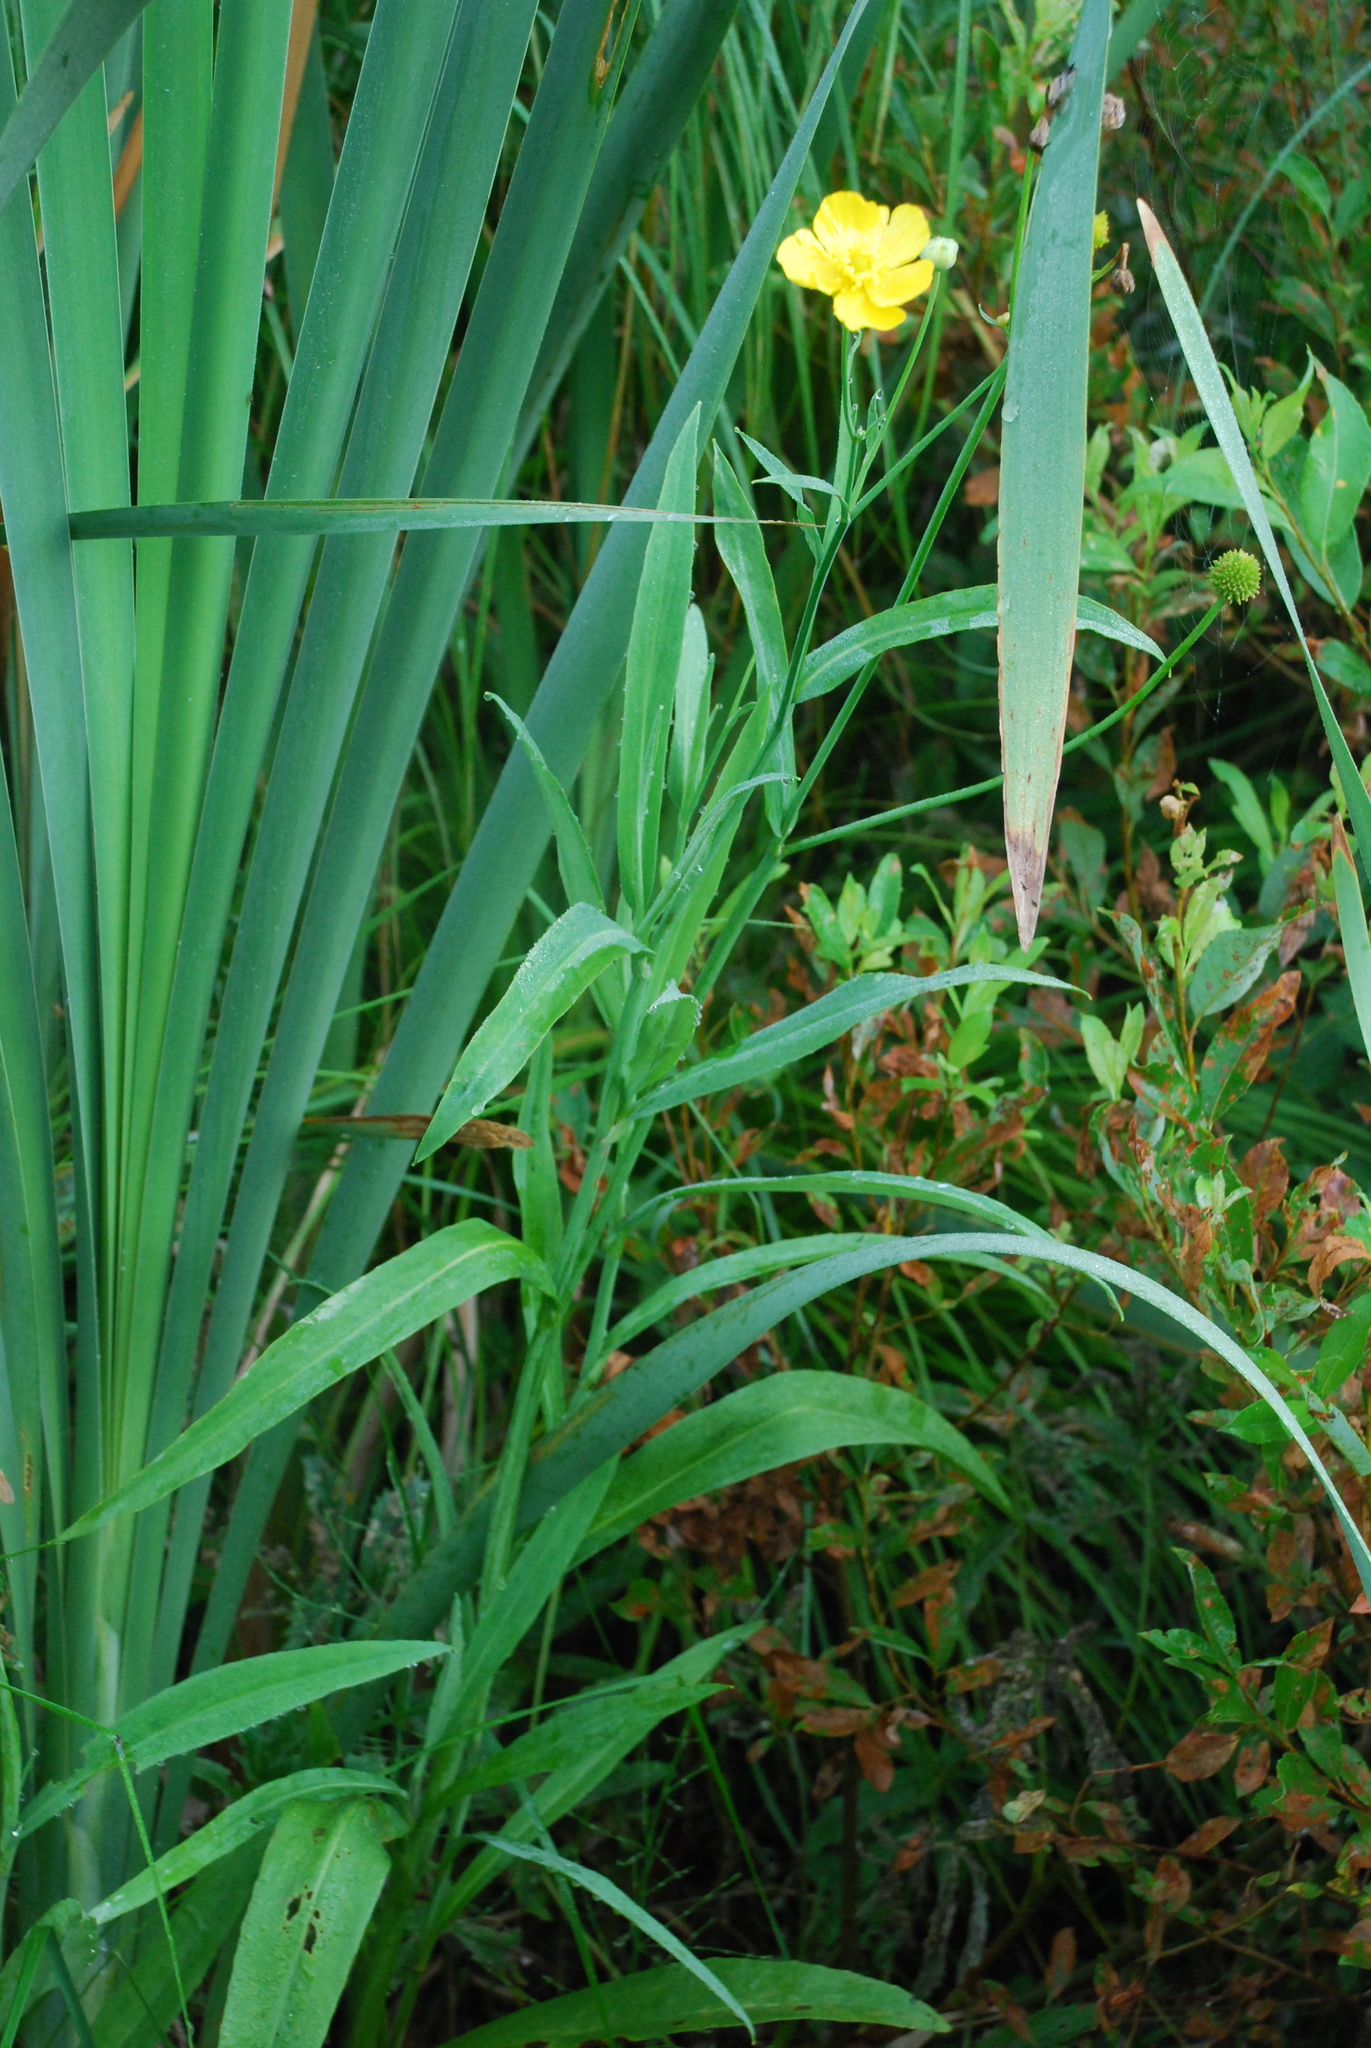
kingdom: Plantae
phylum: Tracheophyta
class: Magnoliopsida
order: Ranunculales
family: Ranunculaceae
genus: Ranunculus
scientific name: Ranunculus lingua
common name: Greater spearwort
